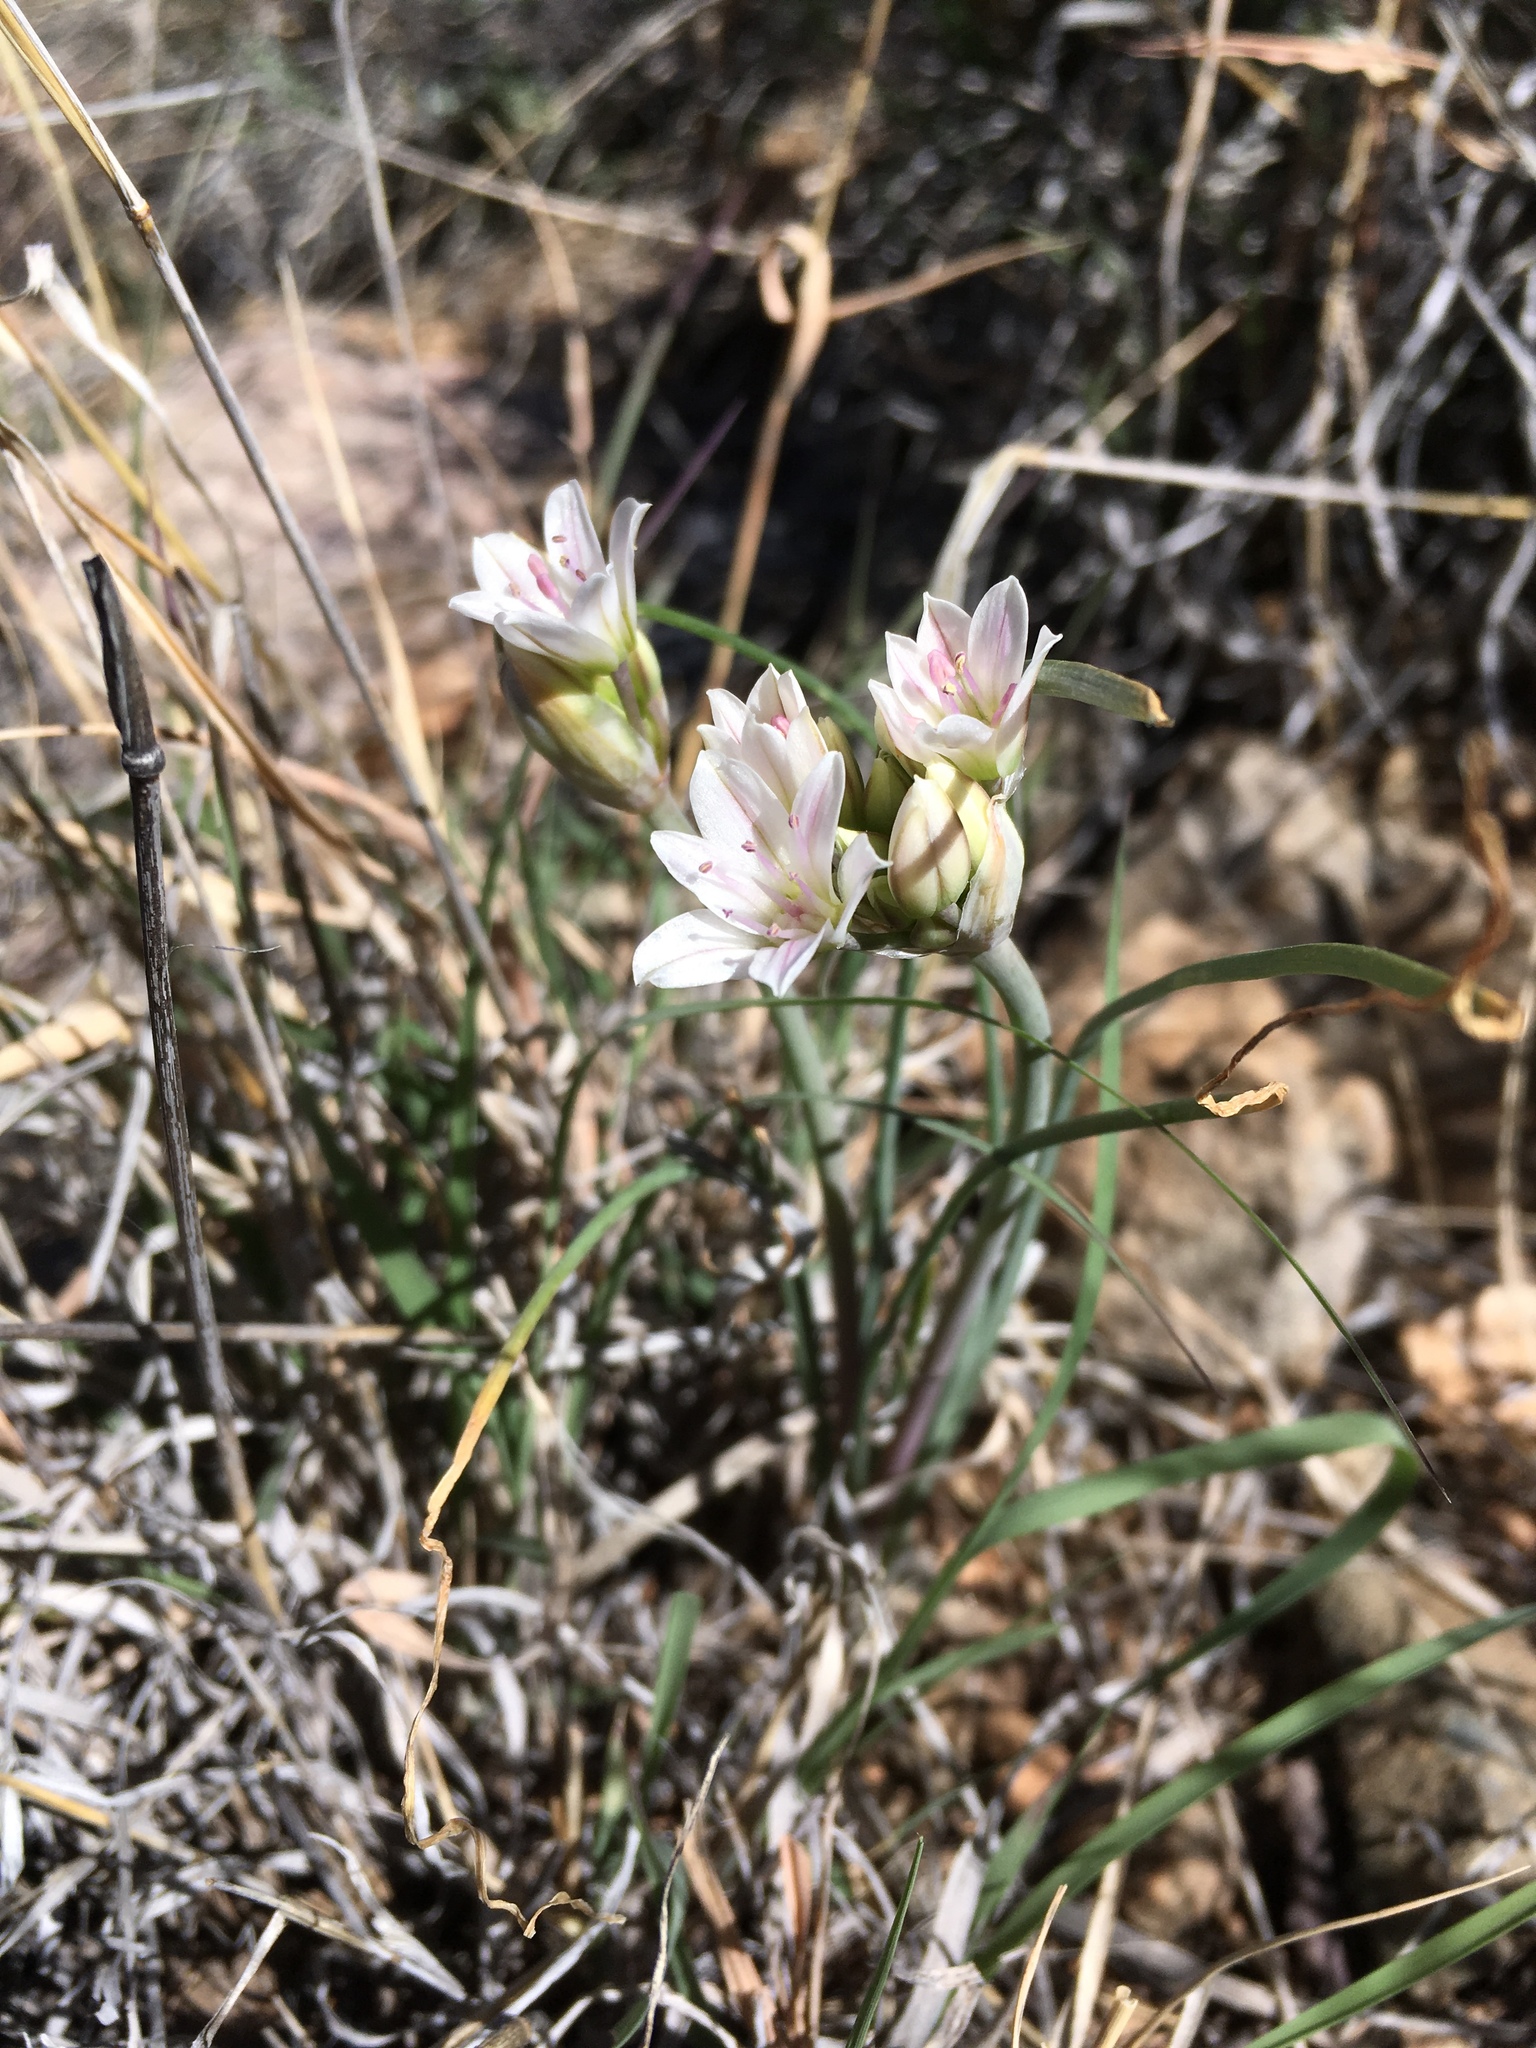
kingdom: Plantae
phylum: Tracheophyta
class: Liliopsida
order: Asparagales
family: Amaryllidaceae
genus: Allium
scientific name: Allium macropetalum
